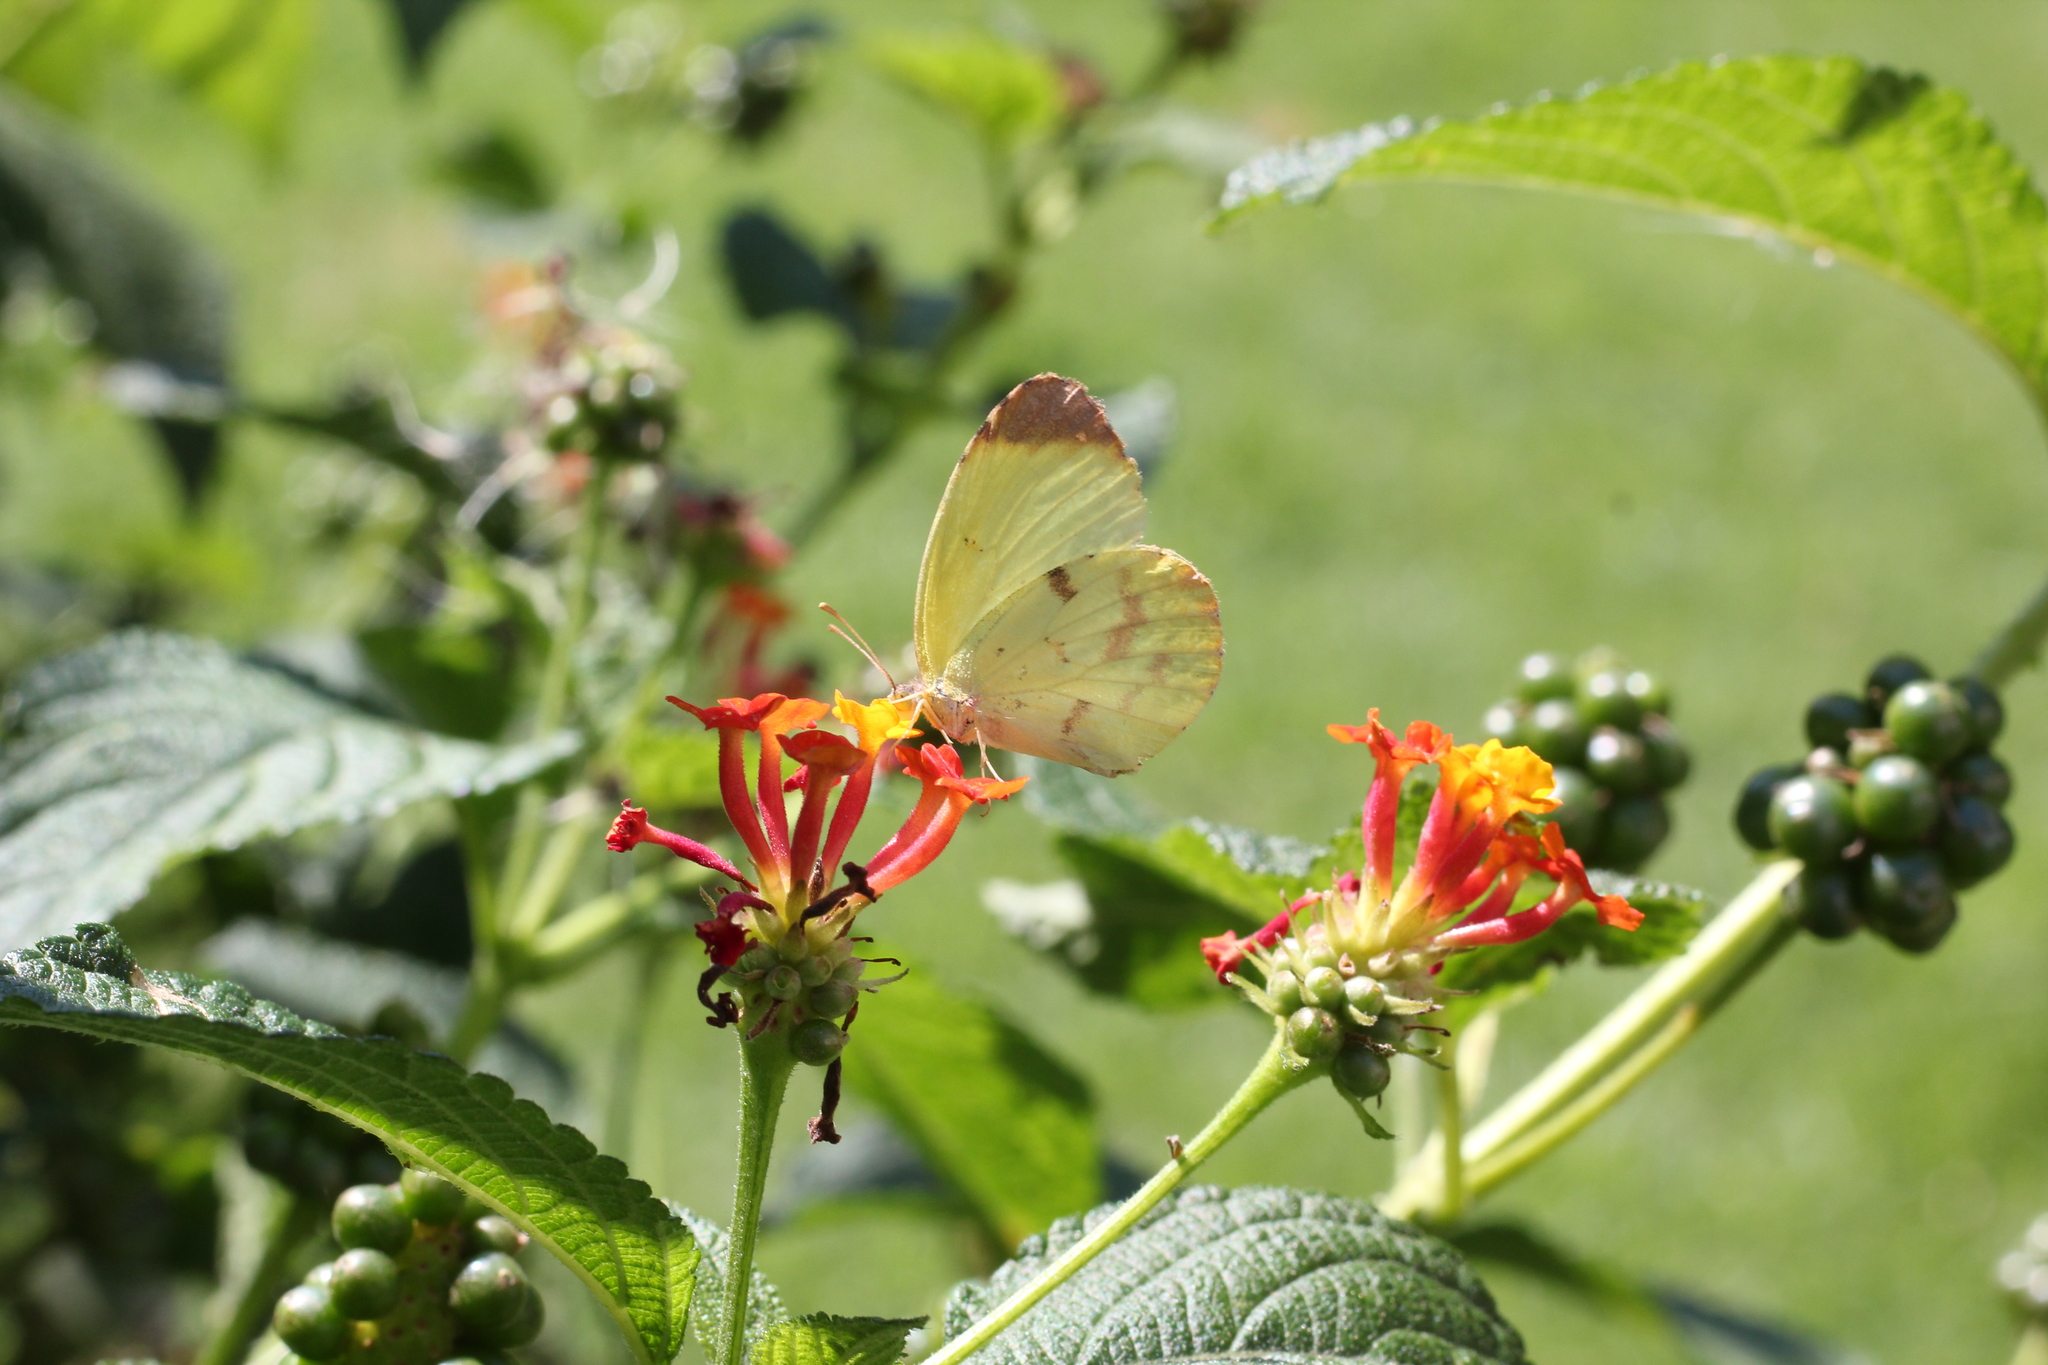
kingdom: Animalia
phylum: Arthropoda
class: Insecta
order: Lepidoptera
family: Pieridae
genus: Teriocolias
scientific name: Teriocolias
